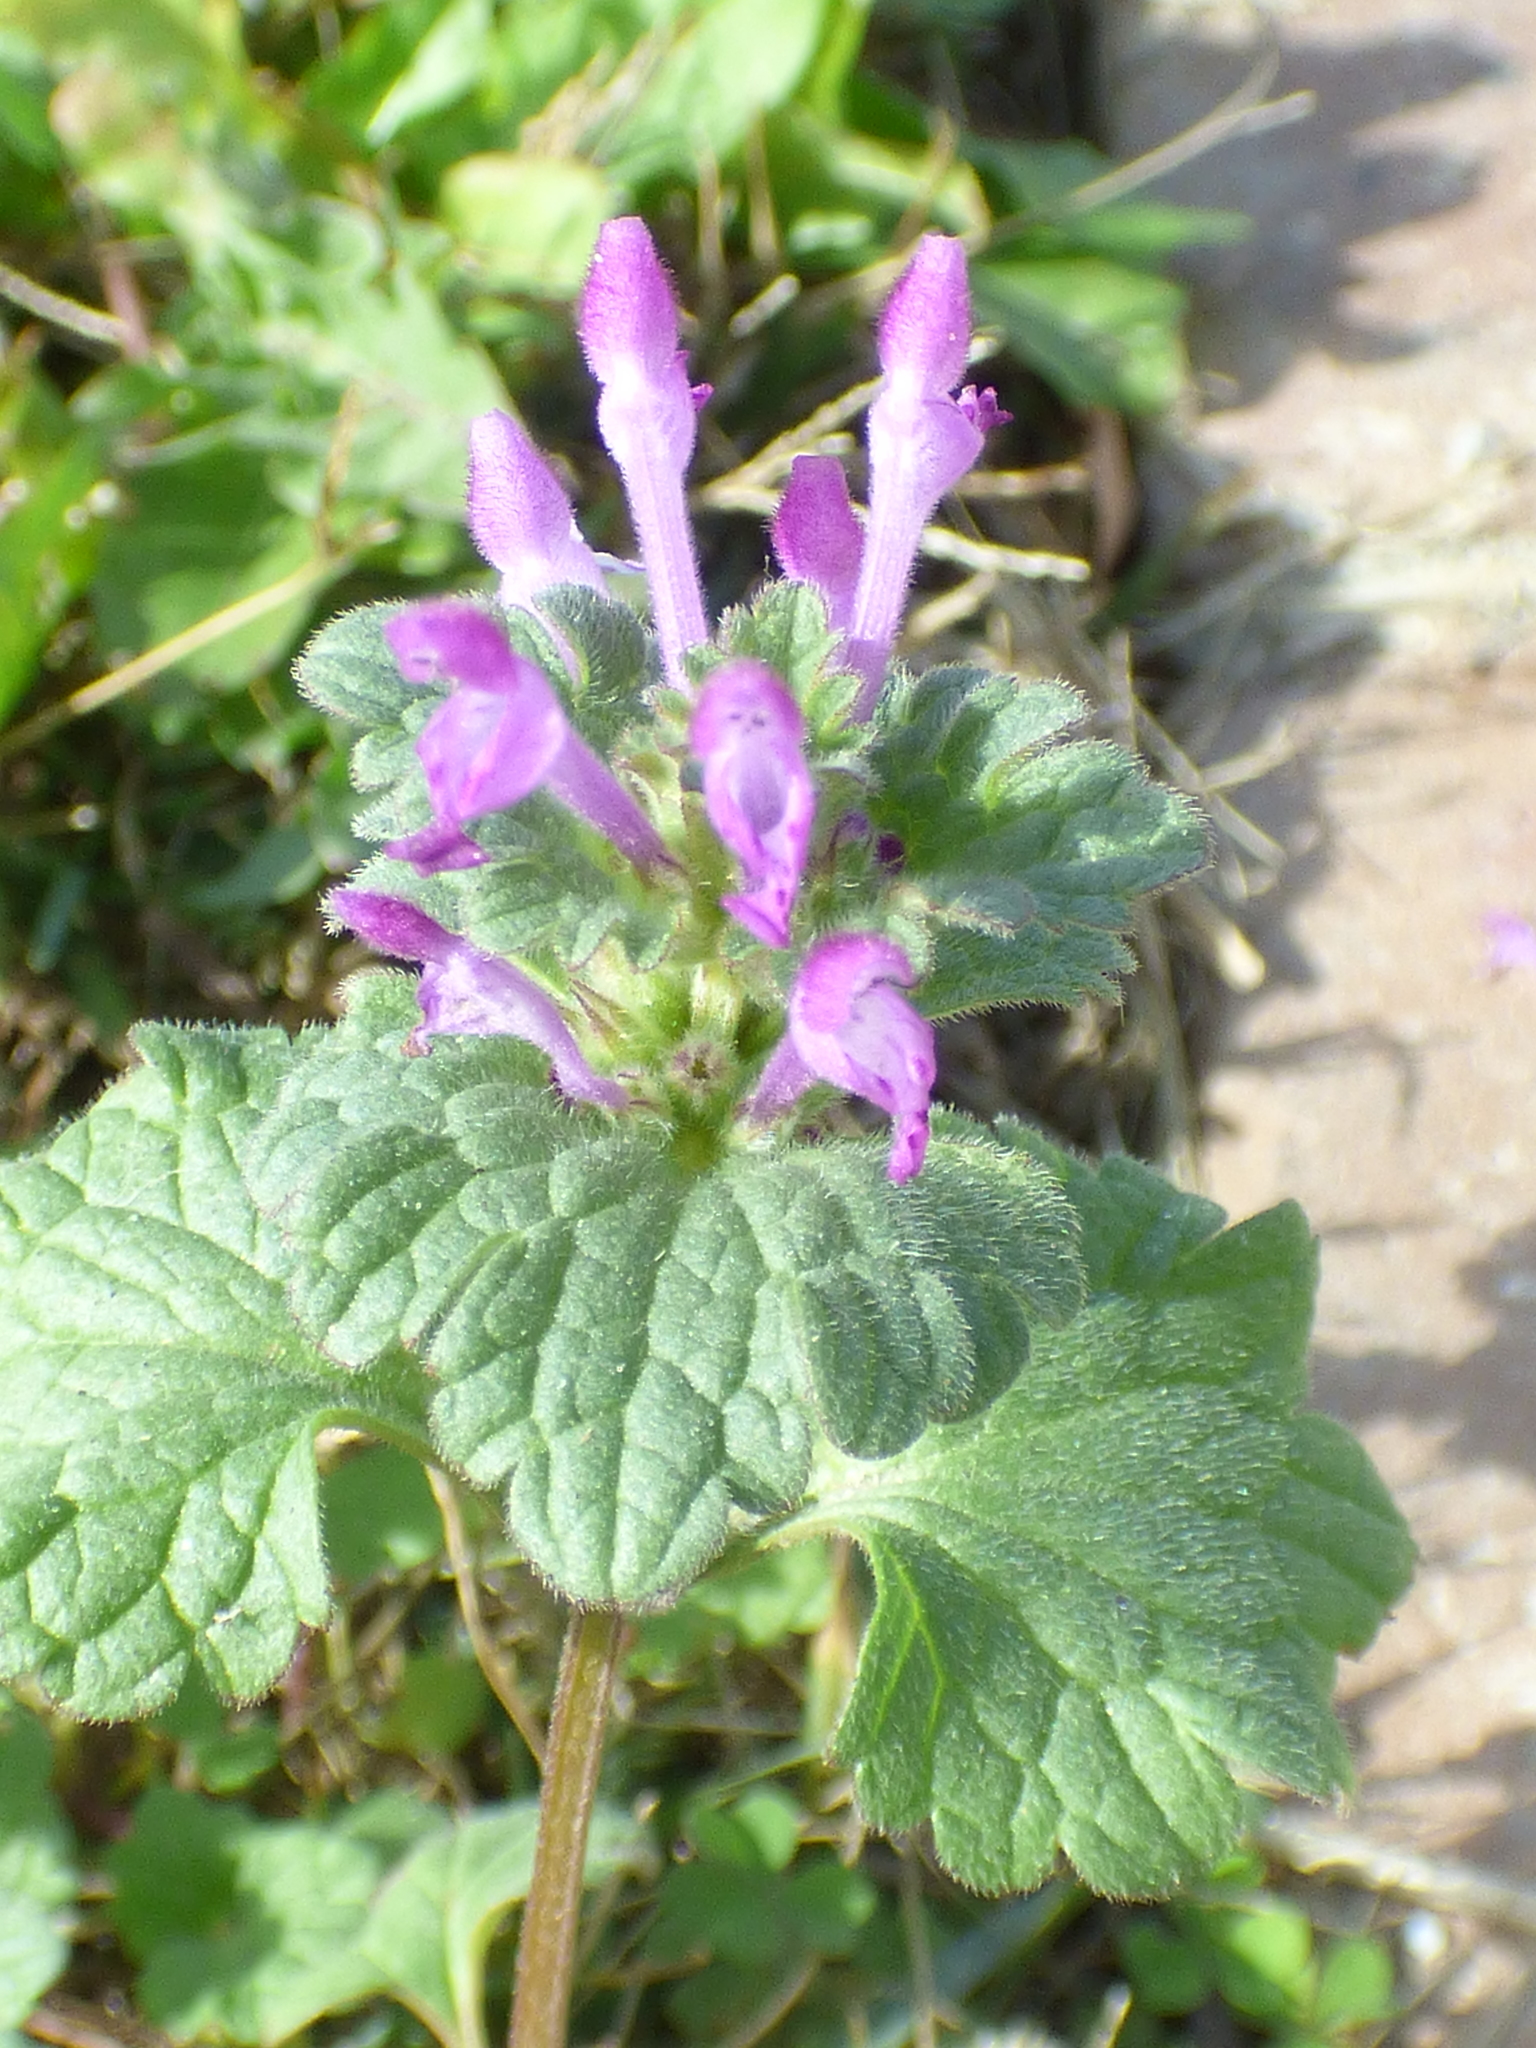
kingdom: Plantae
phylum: Tracheophyta
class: Magnoliopsida
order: Lamiales
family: Lamiaceae
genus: Lamium
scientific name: Lamium amplexicaule
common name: Henbit dead-nettle
